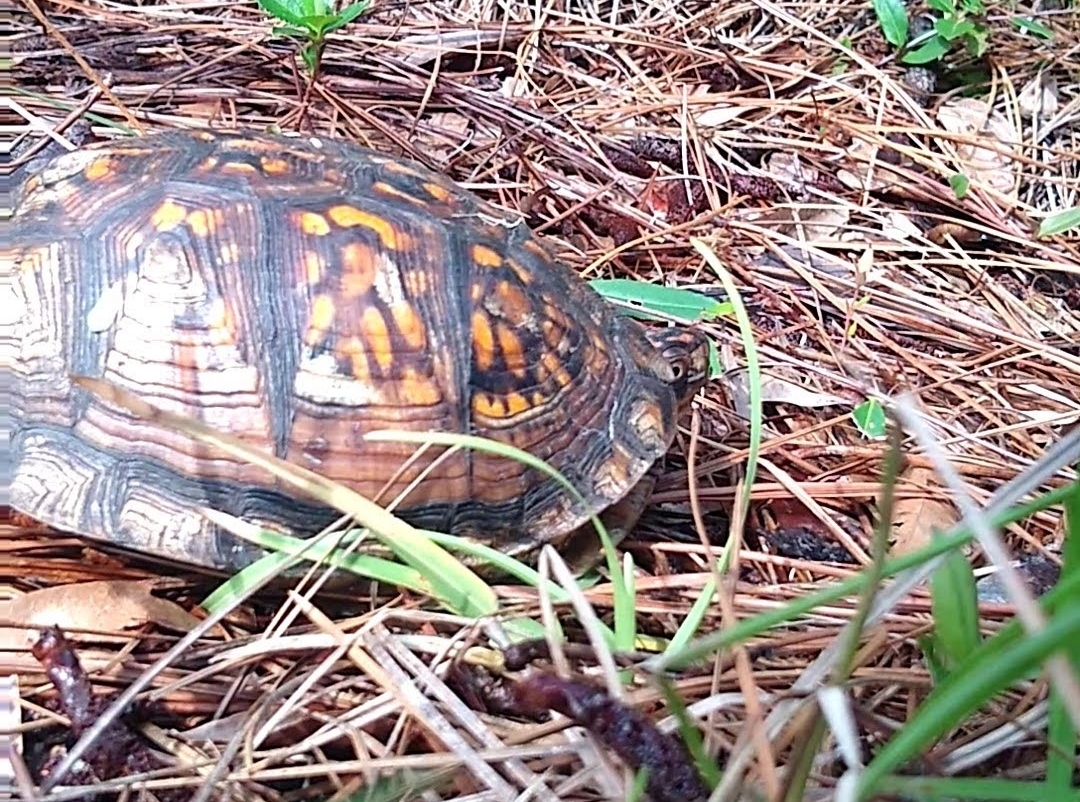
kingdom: Animalia
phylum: Chordata
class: Testudines
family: Emydidae
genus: Terrapene
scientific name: Terrapene carolina
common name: Common box turtle
